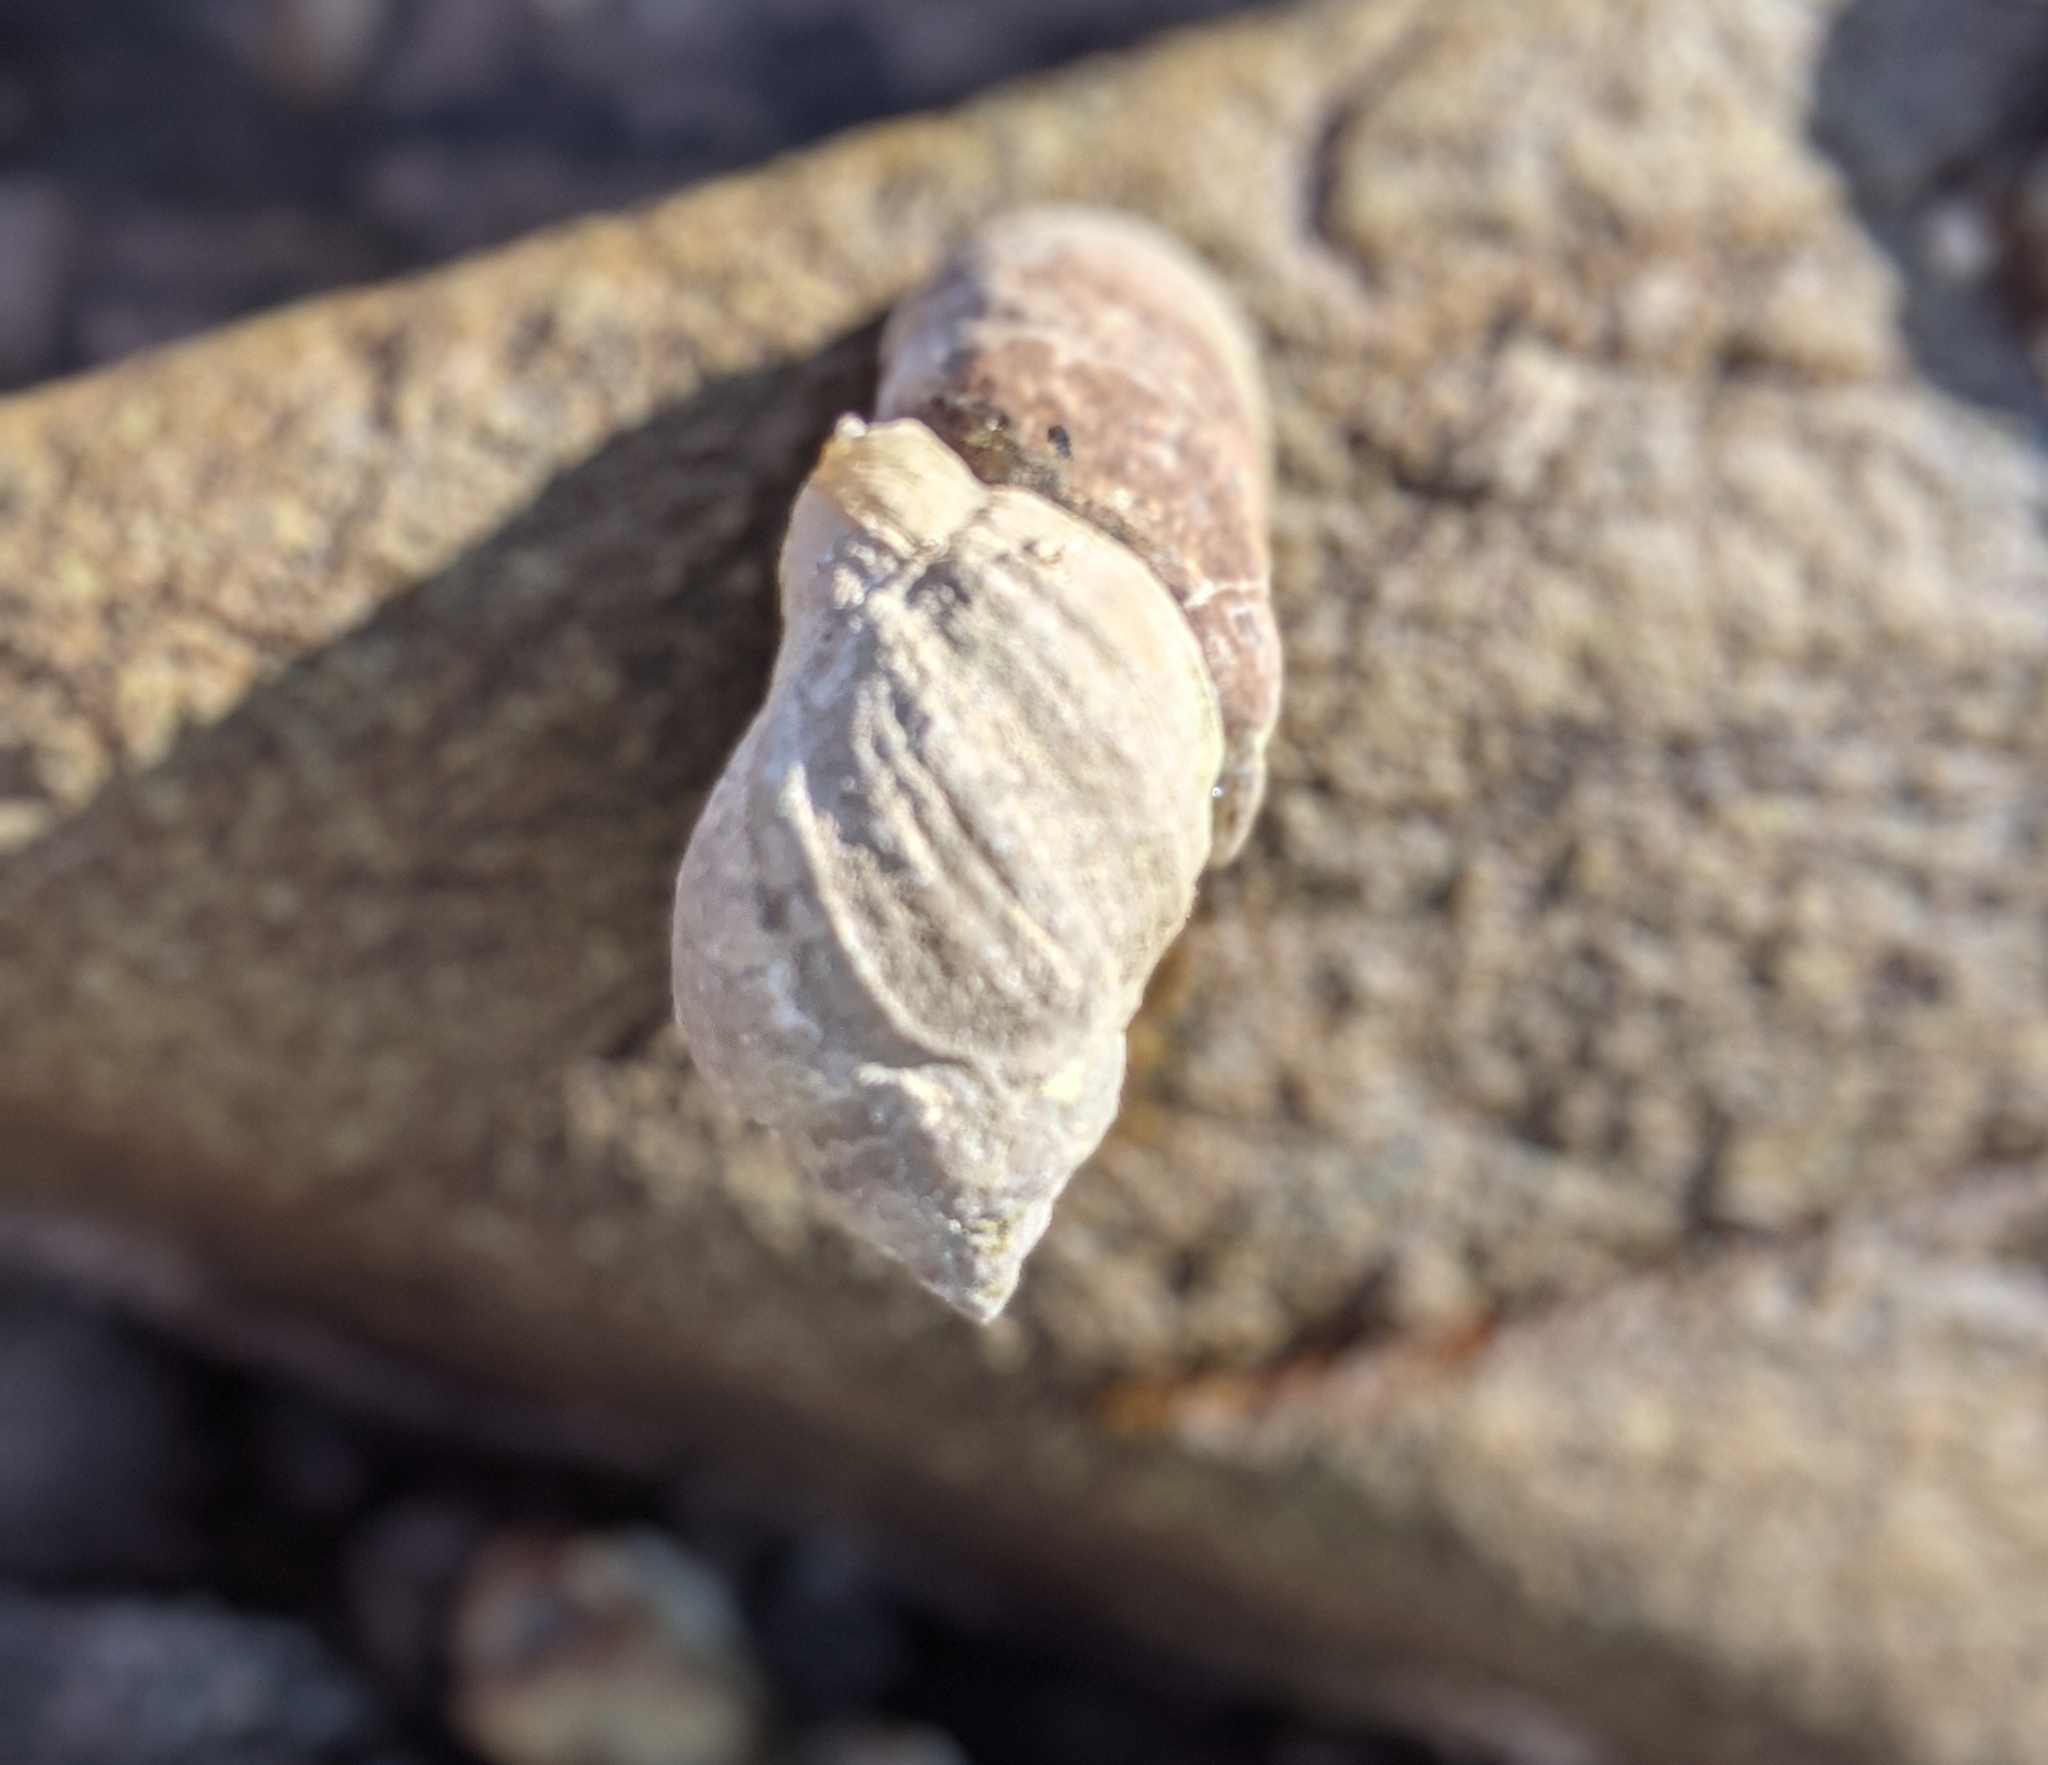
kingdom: Animalia
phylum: Mollusca
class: Gastropoda
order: Neogastropoda
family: Muricidae
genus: Nucella
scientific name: Nucella lapillus
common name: Dog whelk
